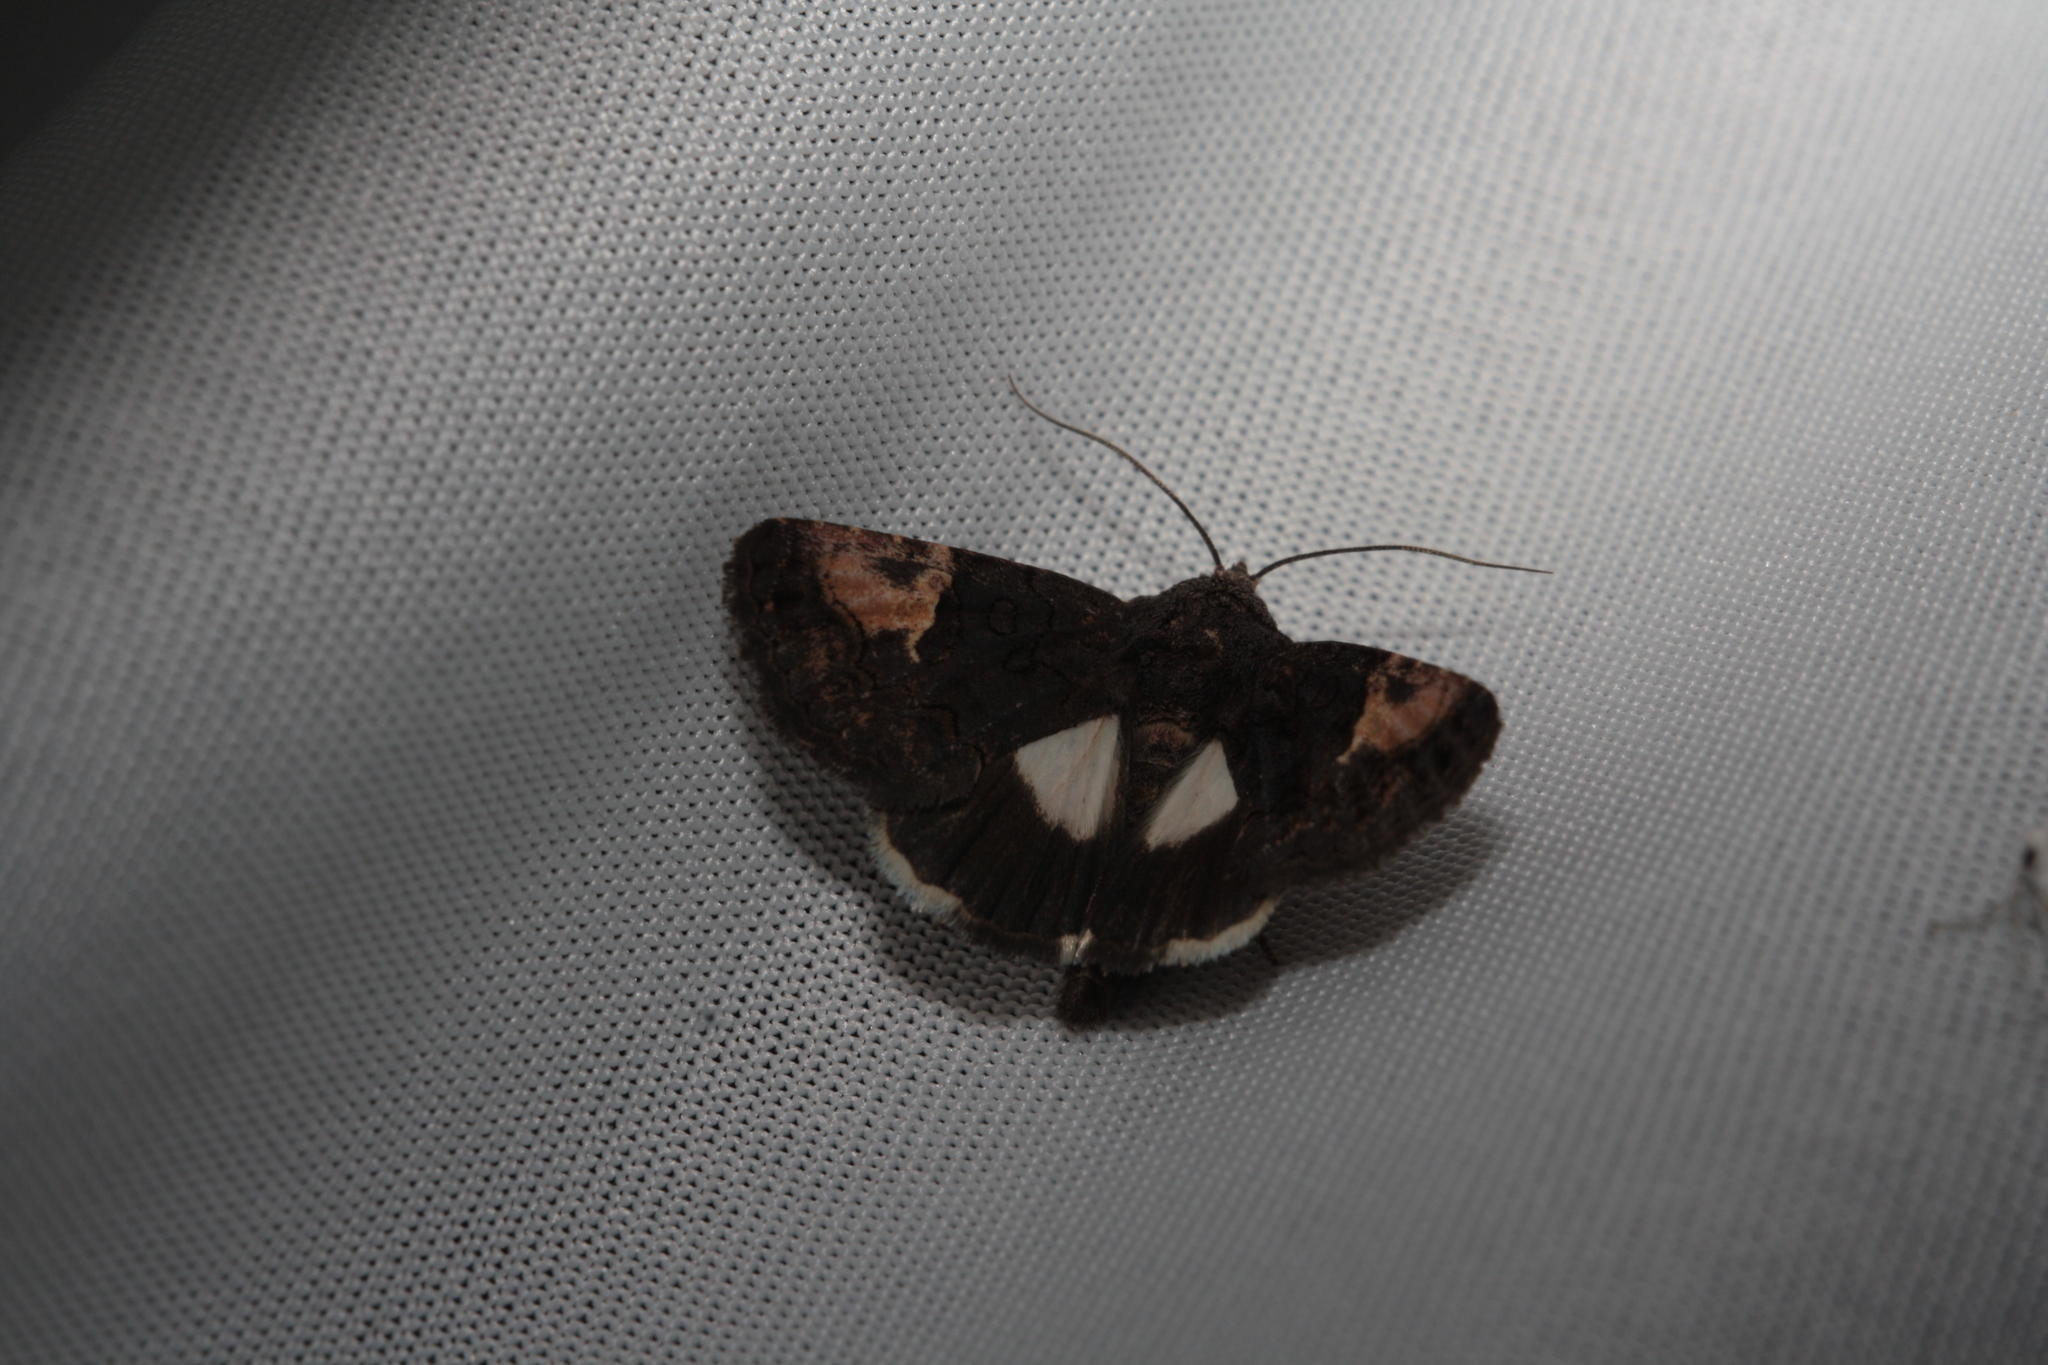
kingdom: Animalia
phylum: Arthropoda
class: Insecta
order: Lepidoptera
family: Noctuidae
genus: Aedia
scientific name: Aedia funesta
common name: The druid
